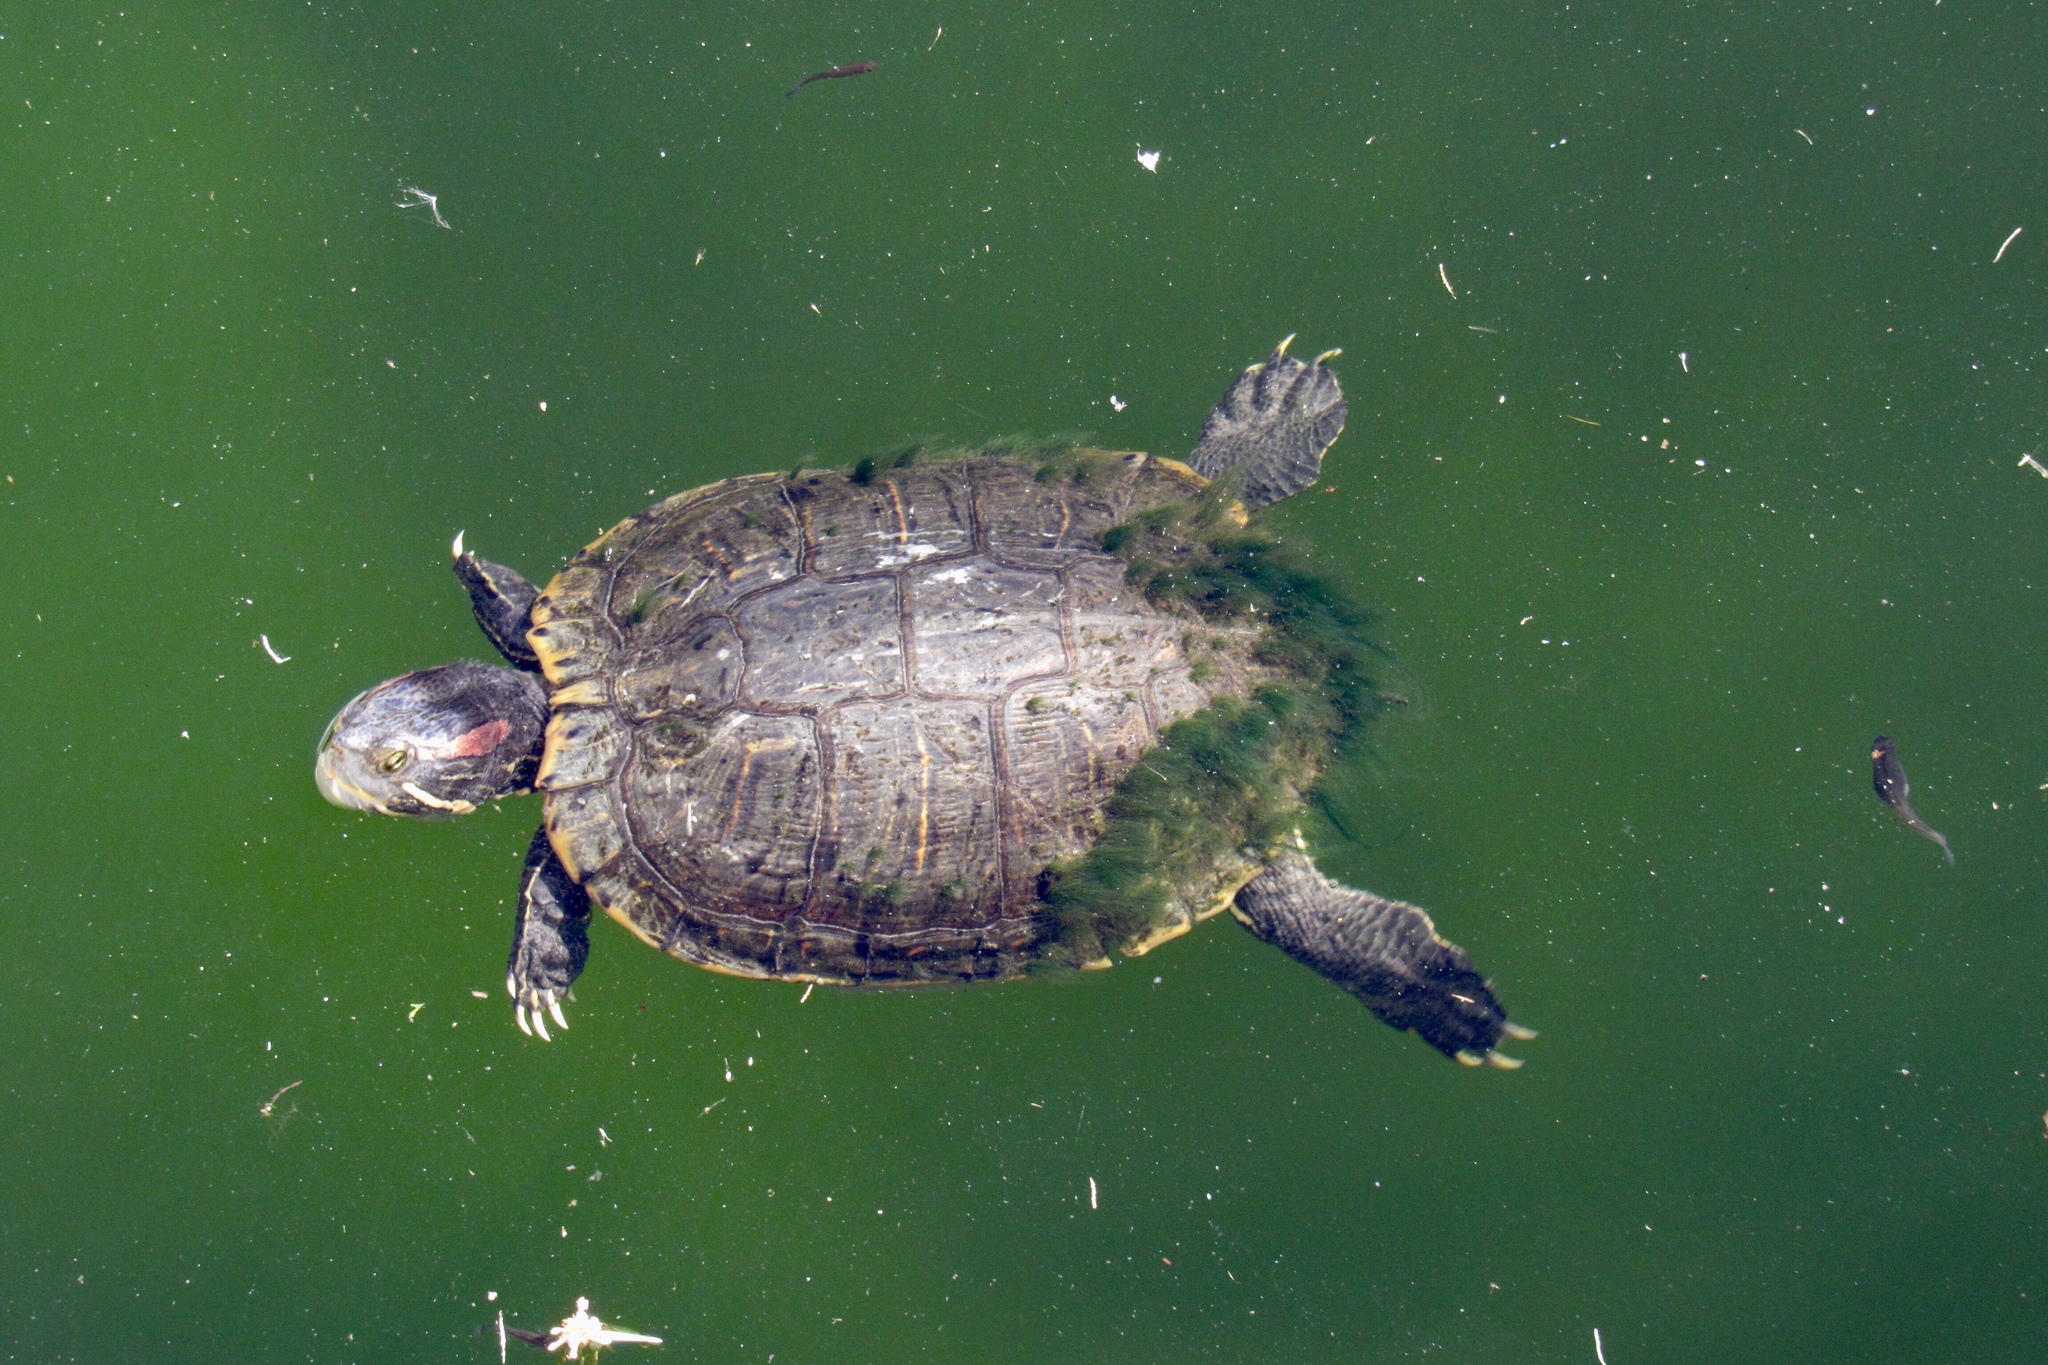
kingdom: Animalia
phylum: Chordata
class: Testudines
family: Emydidae
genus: Trachemys
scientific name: Trachemys scripta
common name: Slider
